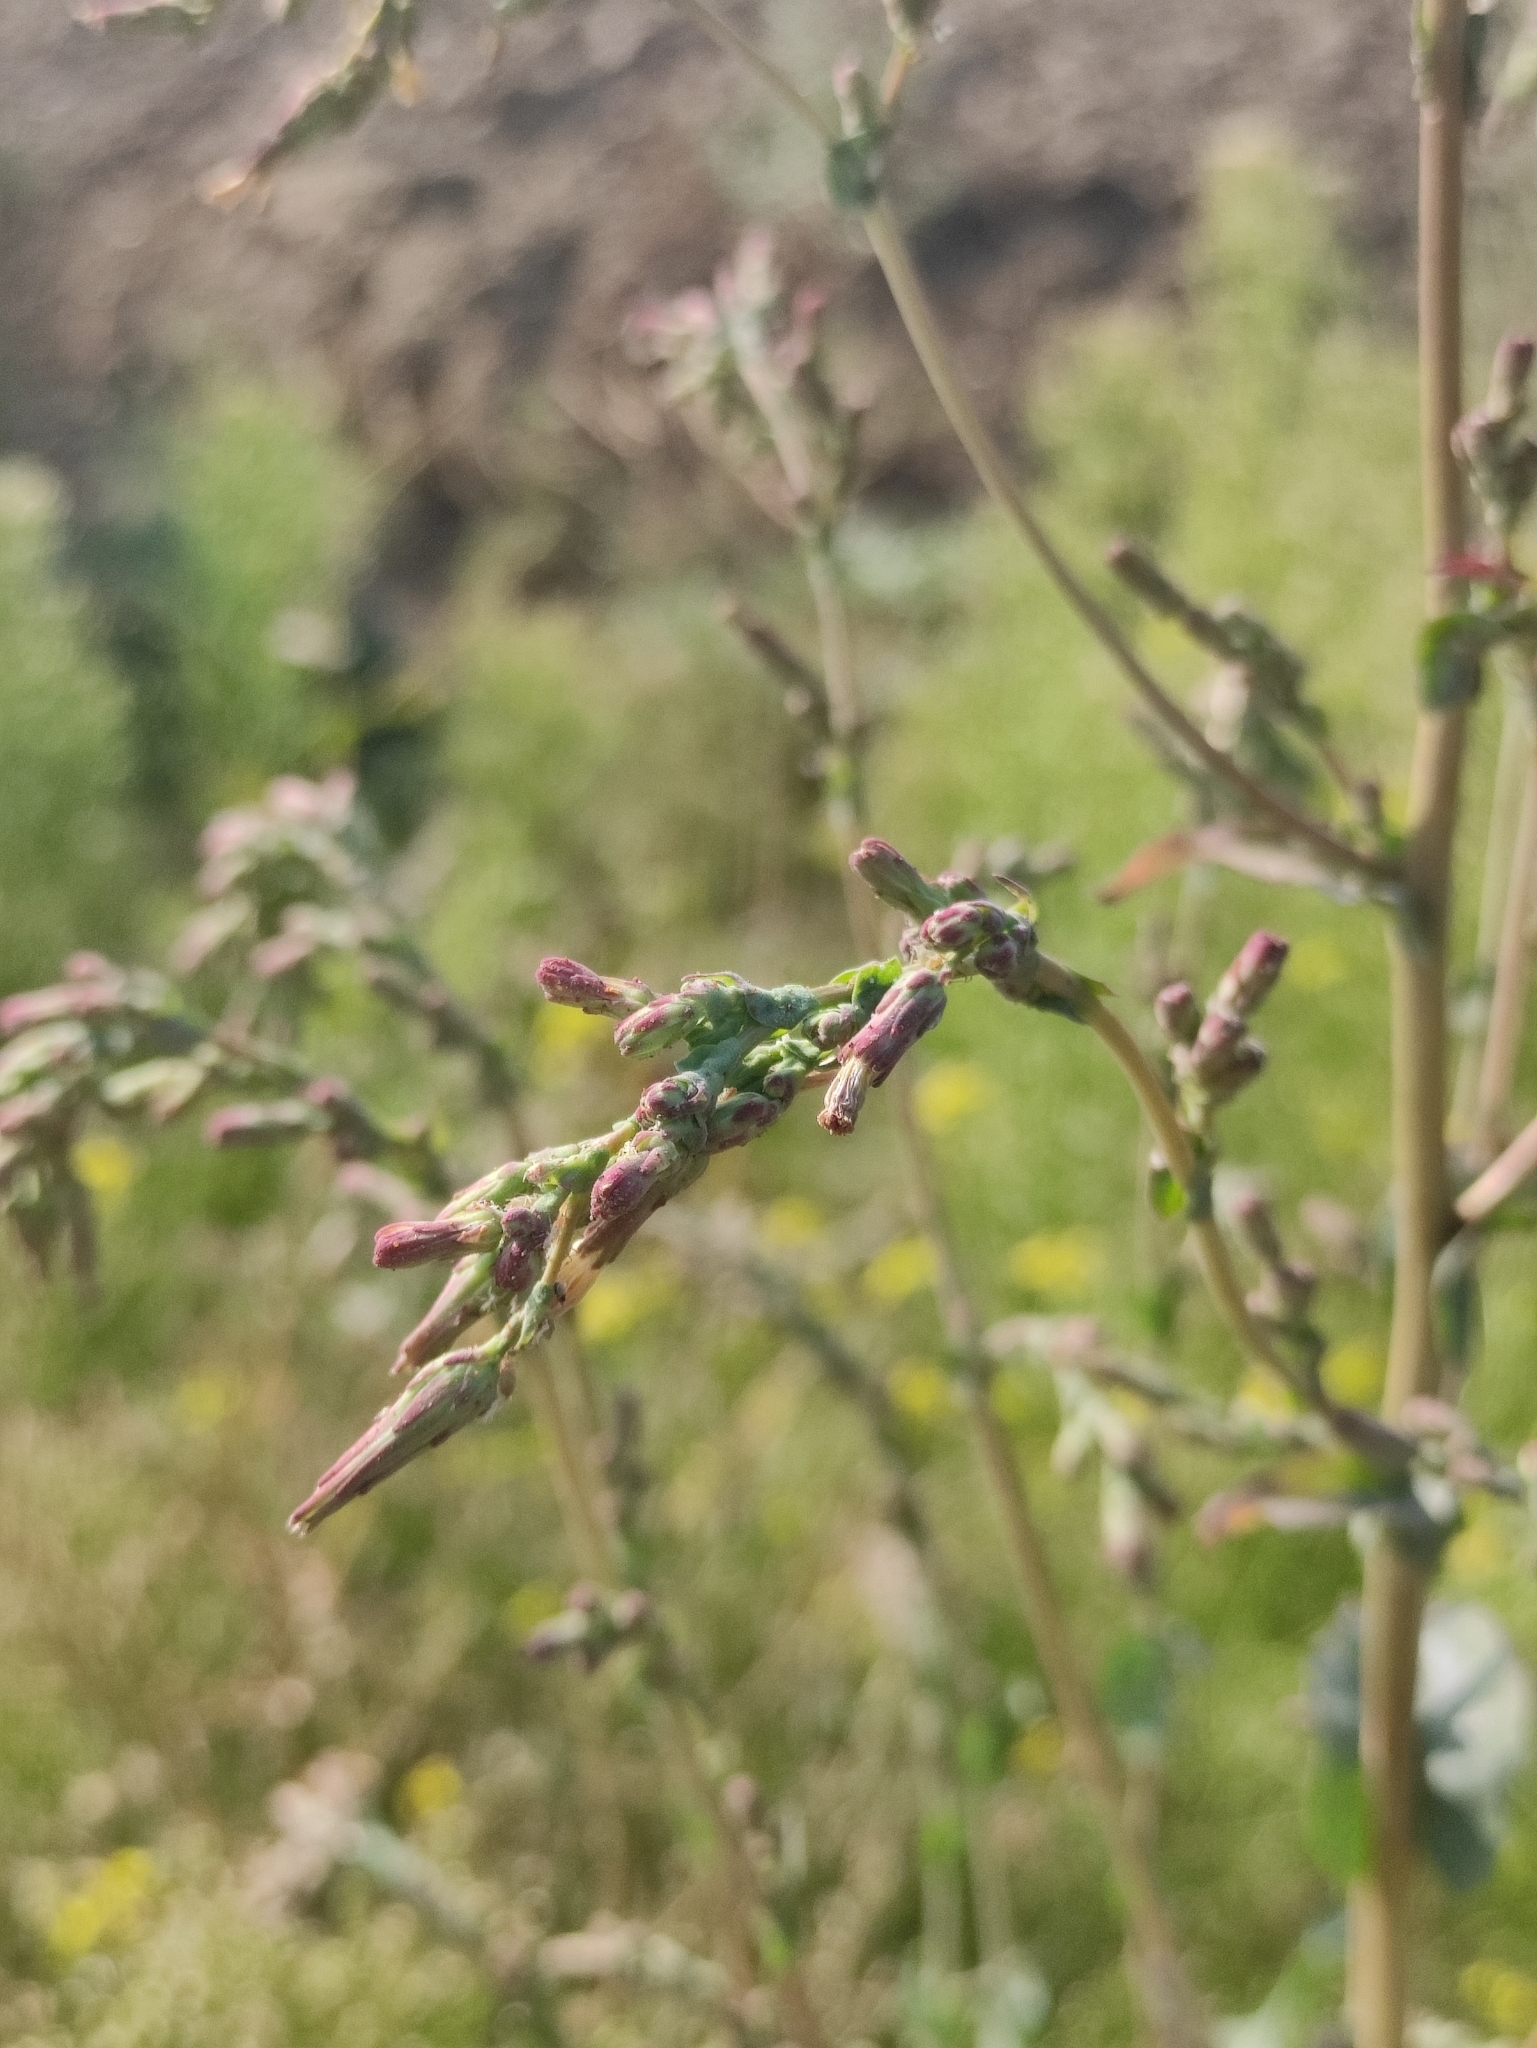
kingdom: Plantae
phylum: Tracheophyta
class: Magnoliopsida
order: Asterales
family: Asteraceae
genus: Lactuca
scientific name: Lactuca serriola
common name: Prickly lettuce
